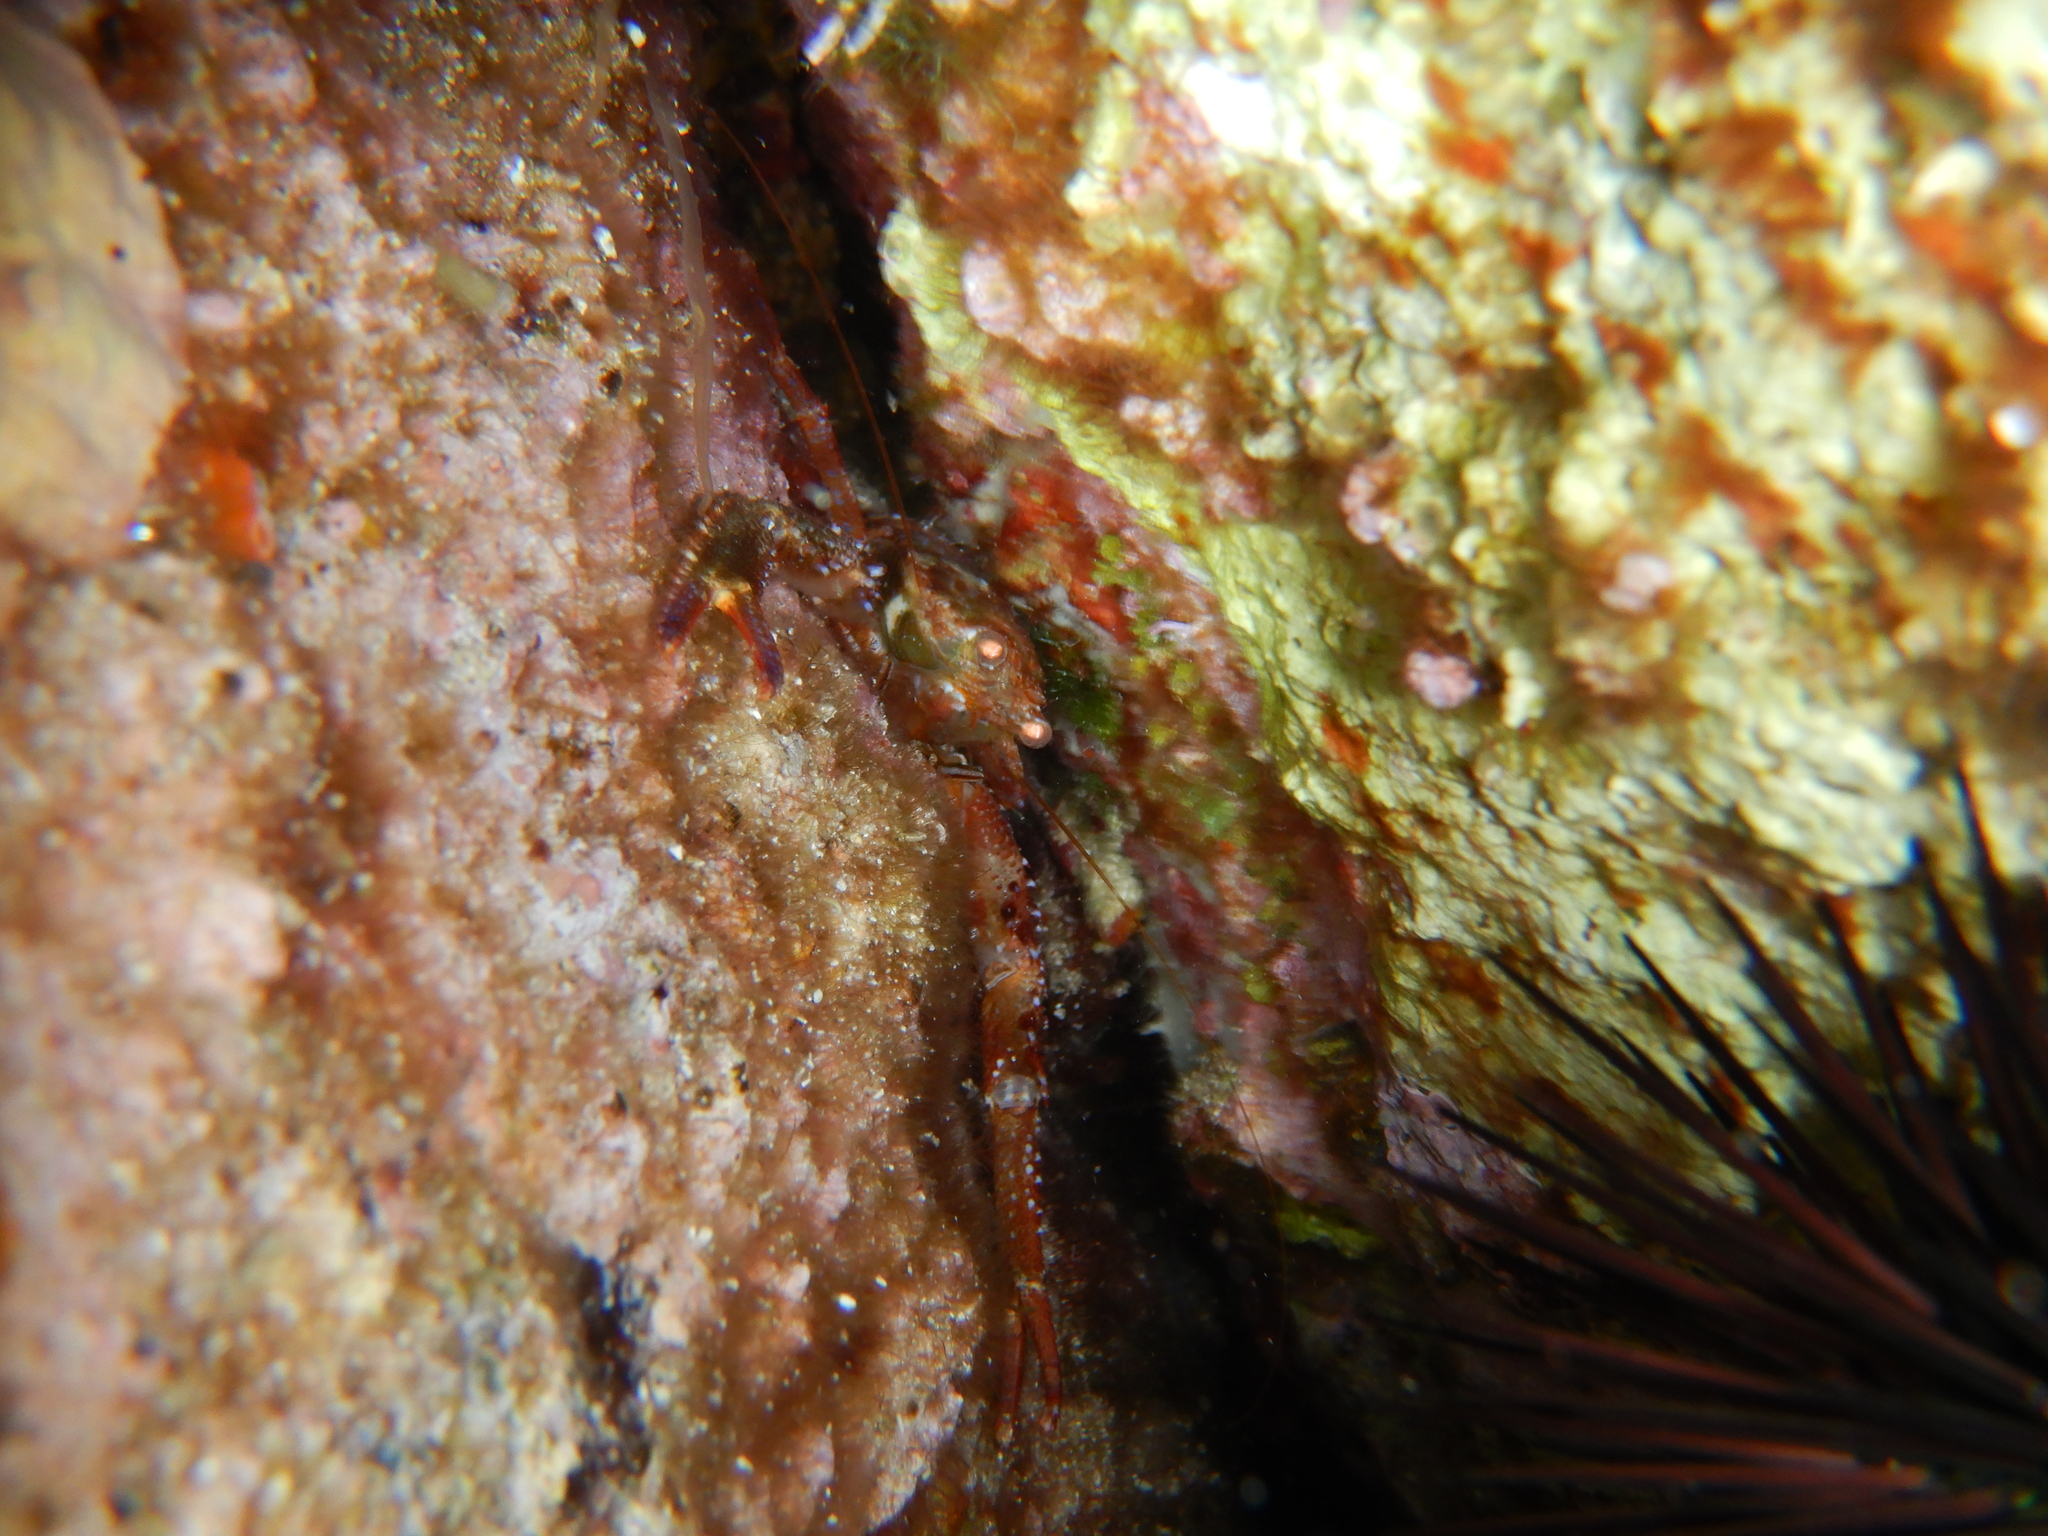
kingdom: Animalia
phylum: Arthropoda
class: Malacostraca
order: Decapoda
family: Galatheidae
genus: Galathea
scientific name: Galathea squamifera
